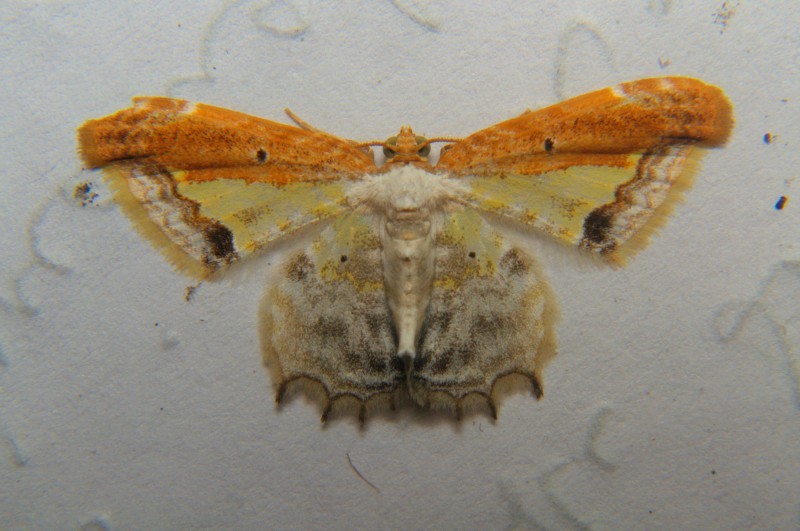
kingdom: Animalia
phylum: Arthropoda
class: Insecta
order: Lepidoptera
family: Geometridae
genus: Acolutha
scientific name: Acolutha pulchella
